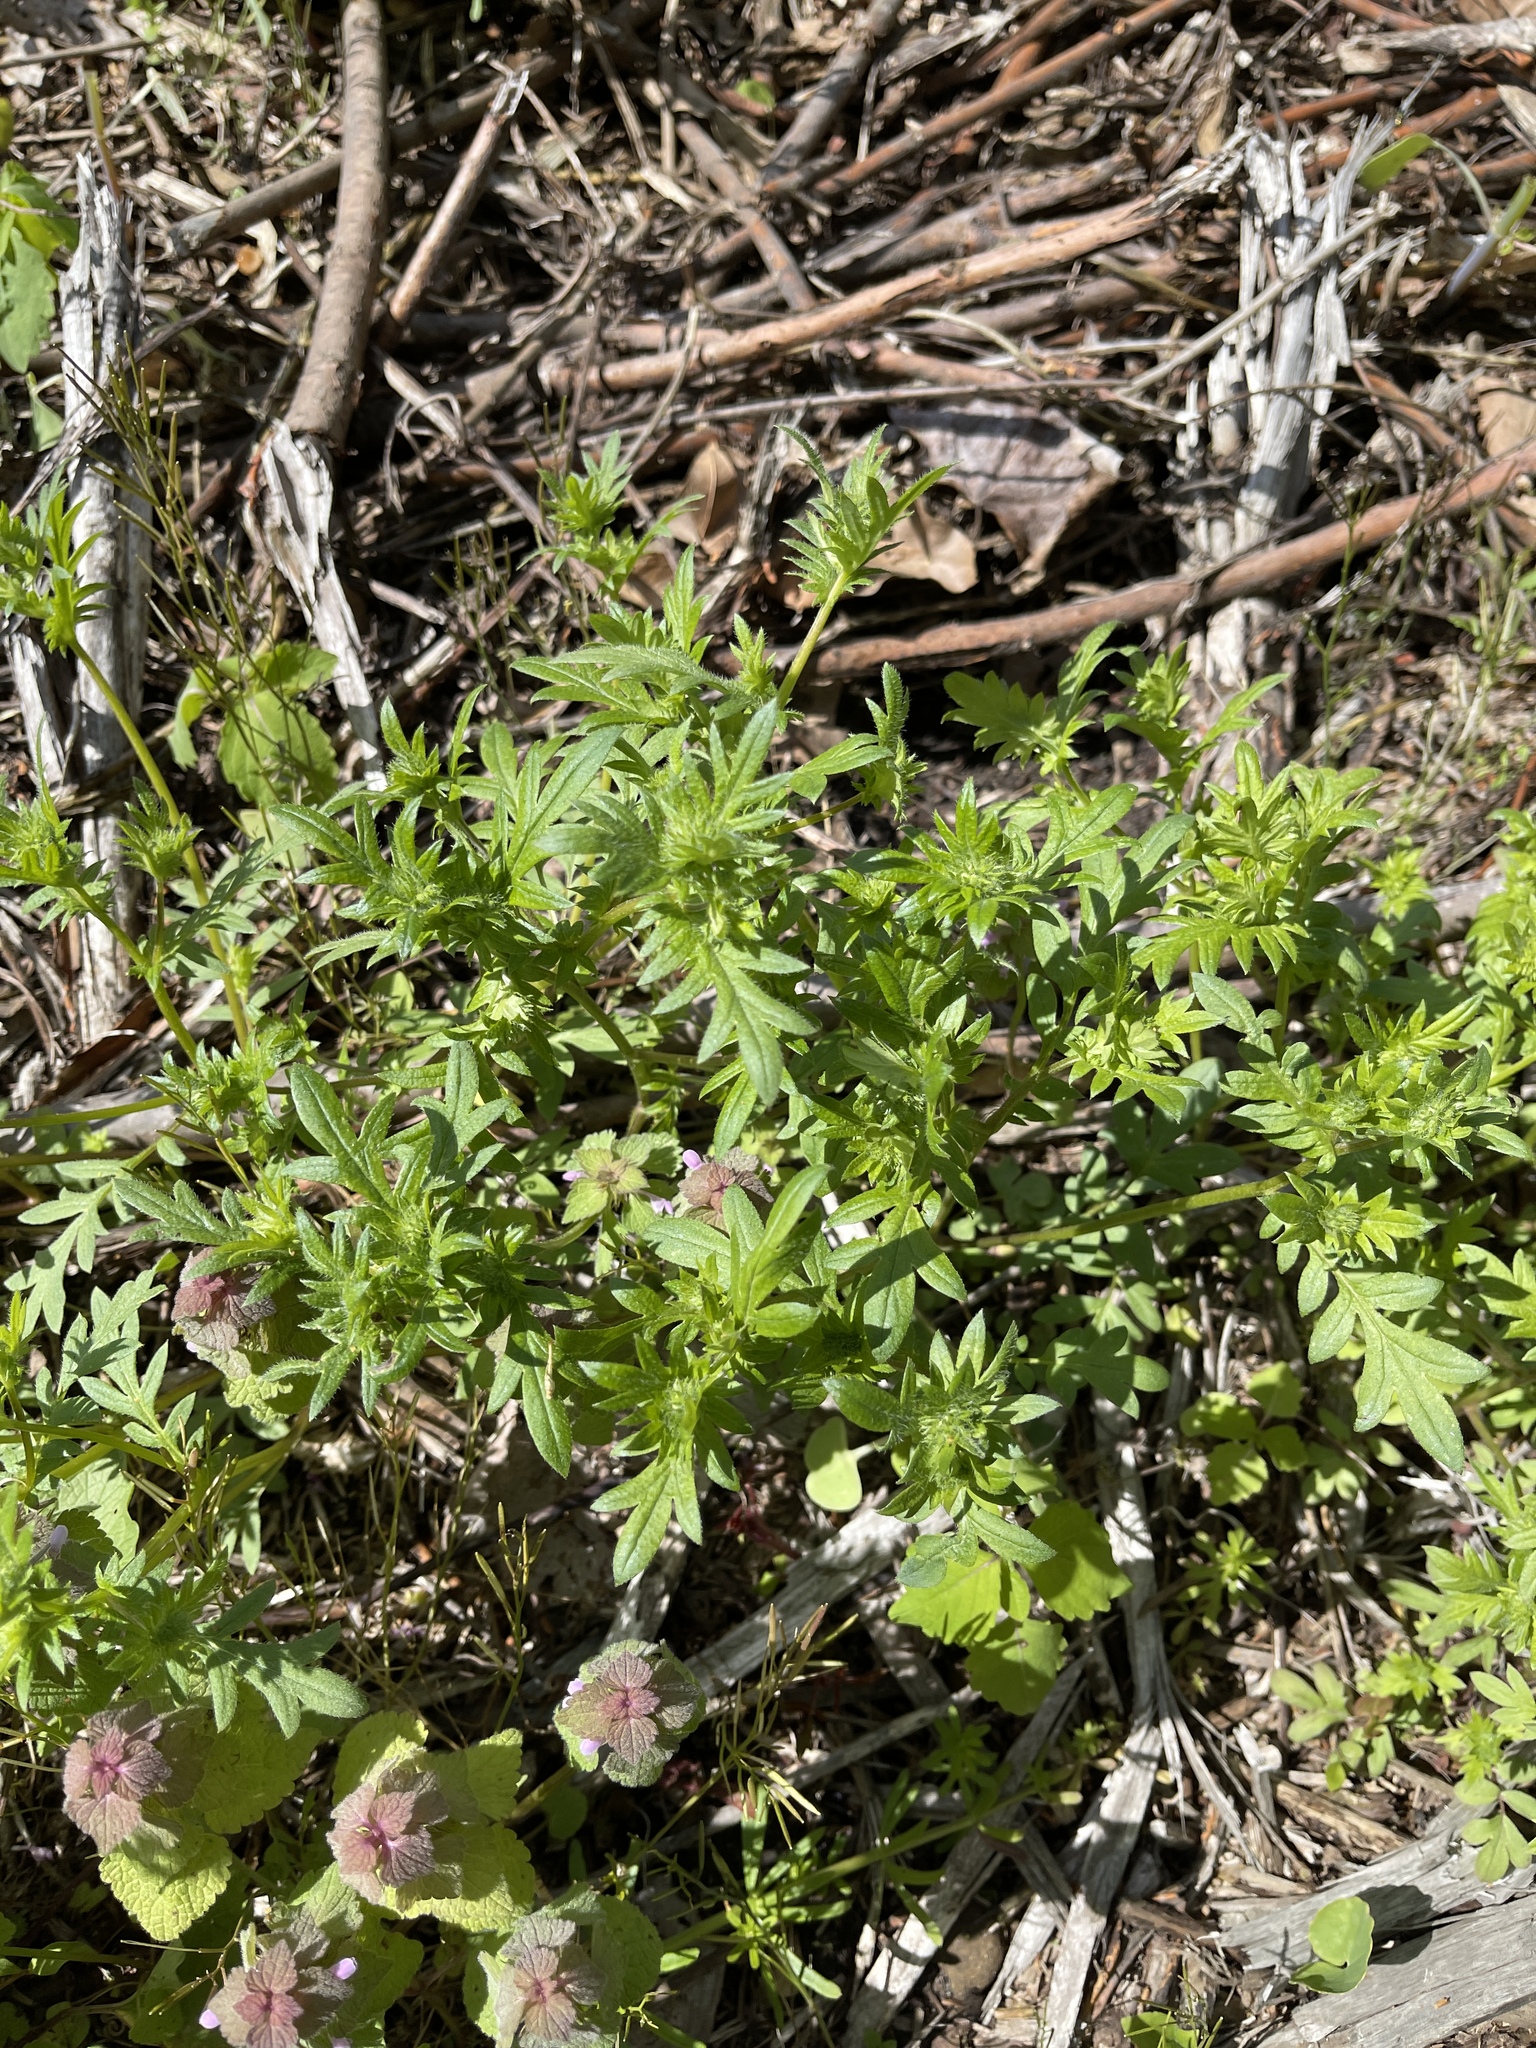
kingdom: Plantae
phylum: Tracheophyta
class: Magnoliopsida
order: Boraginales
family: Hydrophyllaceae
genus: Phacelia
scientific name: Phacelia purshii
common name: Miami-mist
